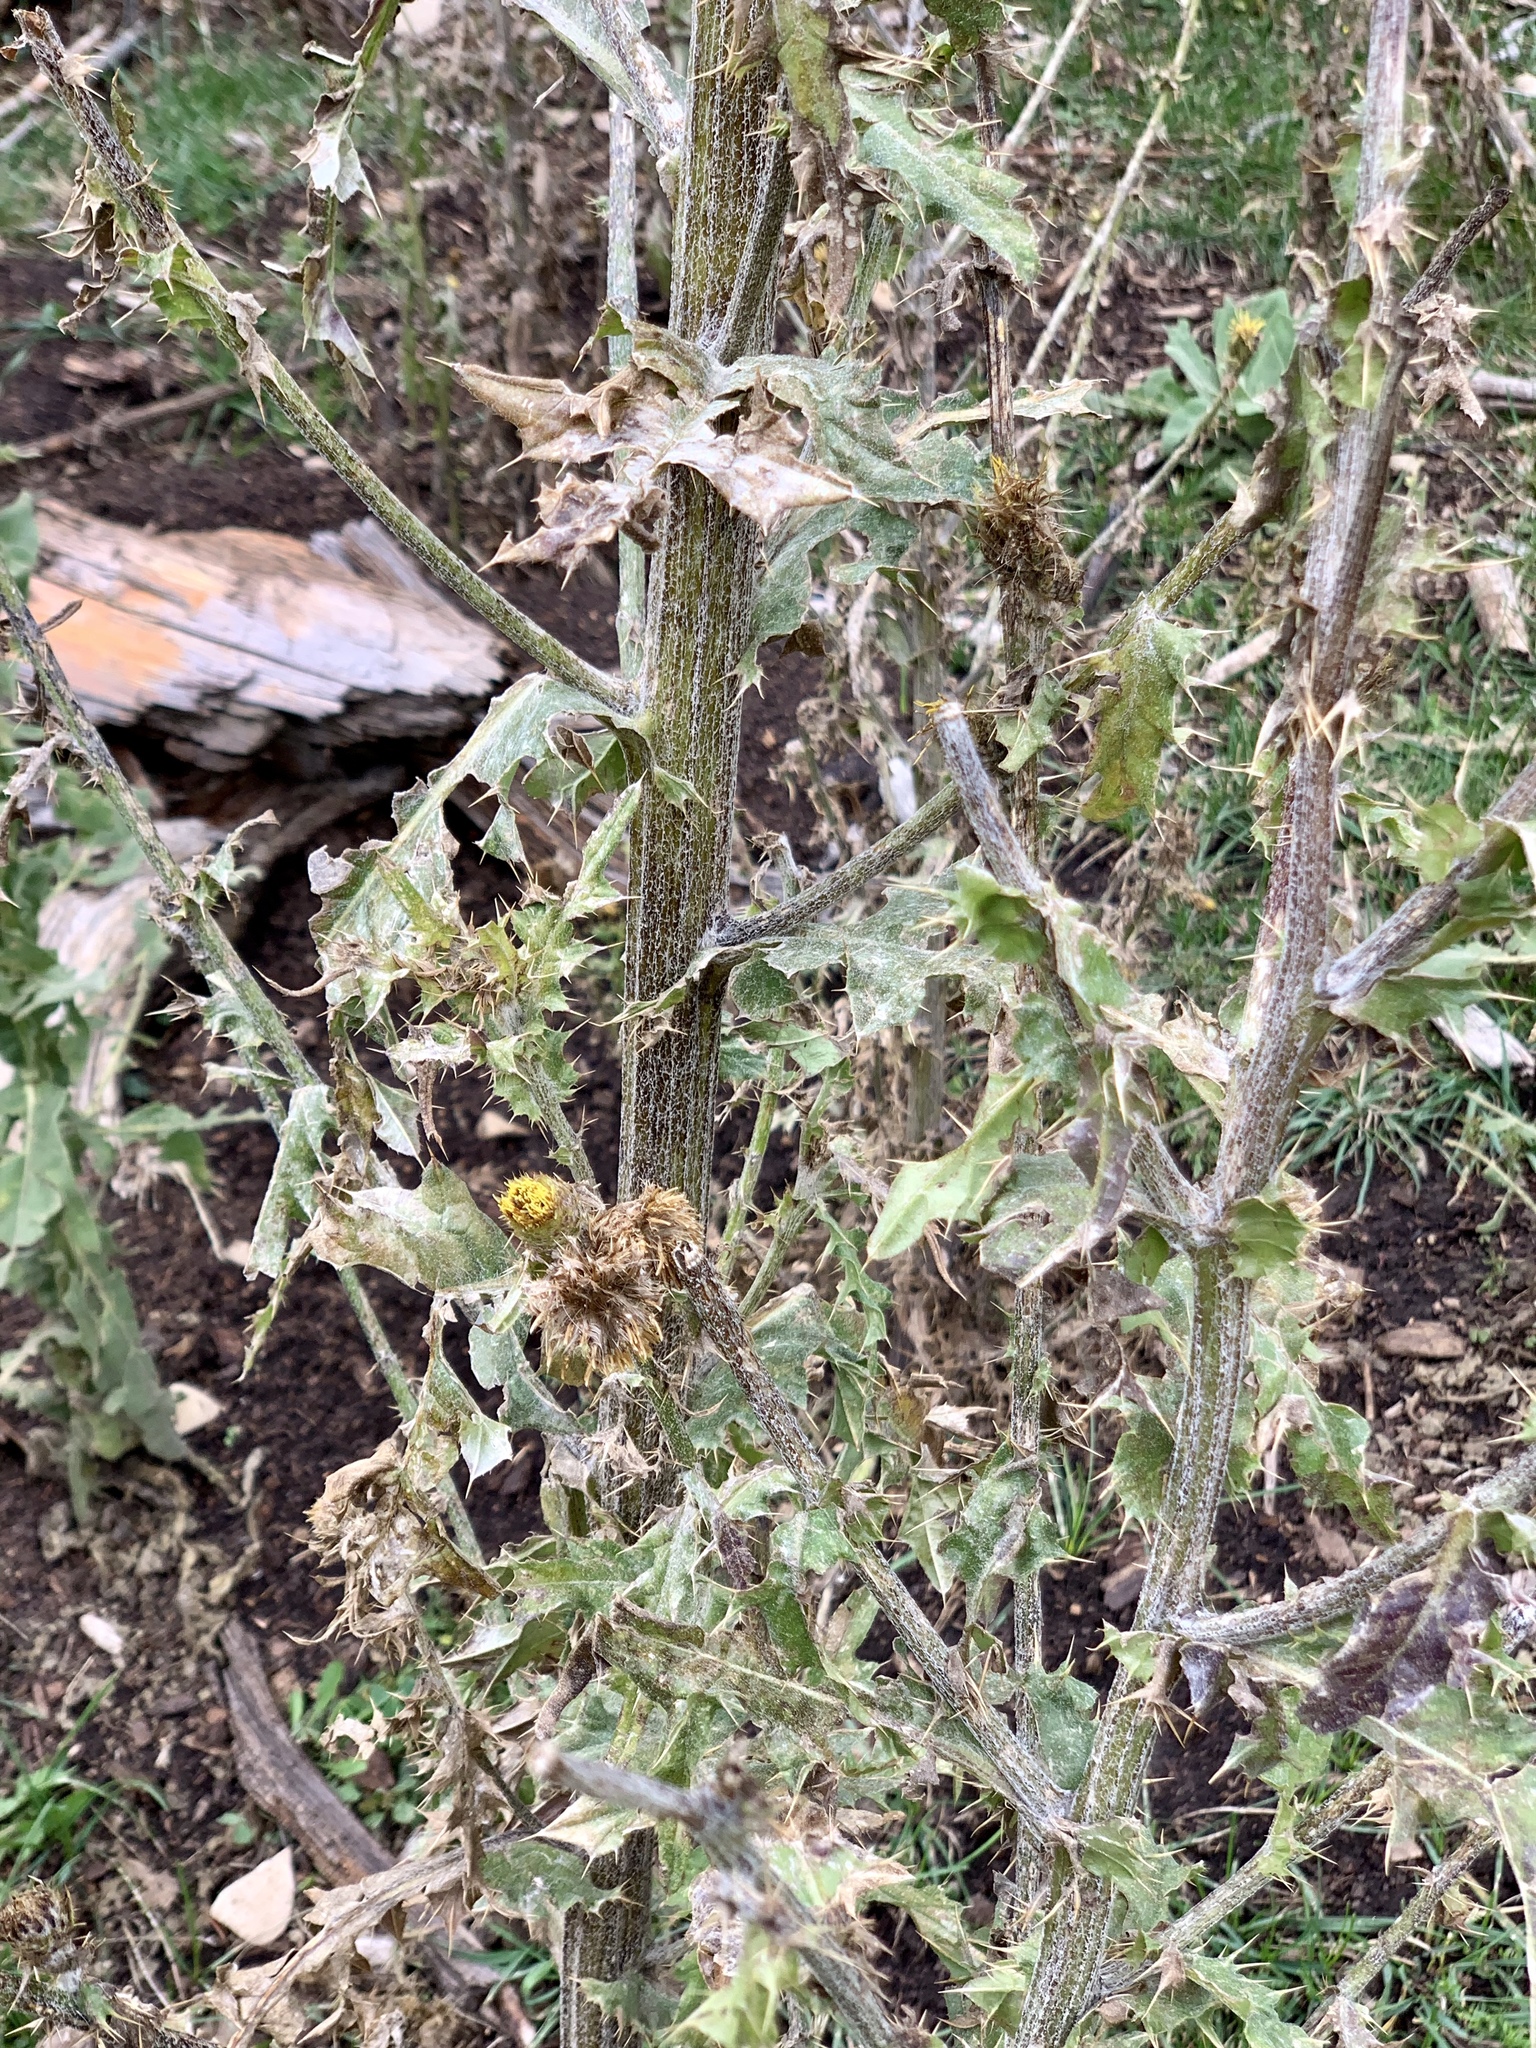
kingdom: Plantae
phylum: Tracheophyta
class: Magnoliopsida
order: Asterales
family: Asteraceae
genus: Cirsium
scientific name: Cirsium parryi
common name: Parry's thistle
